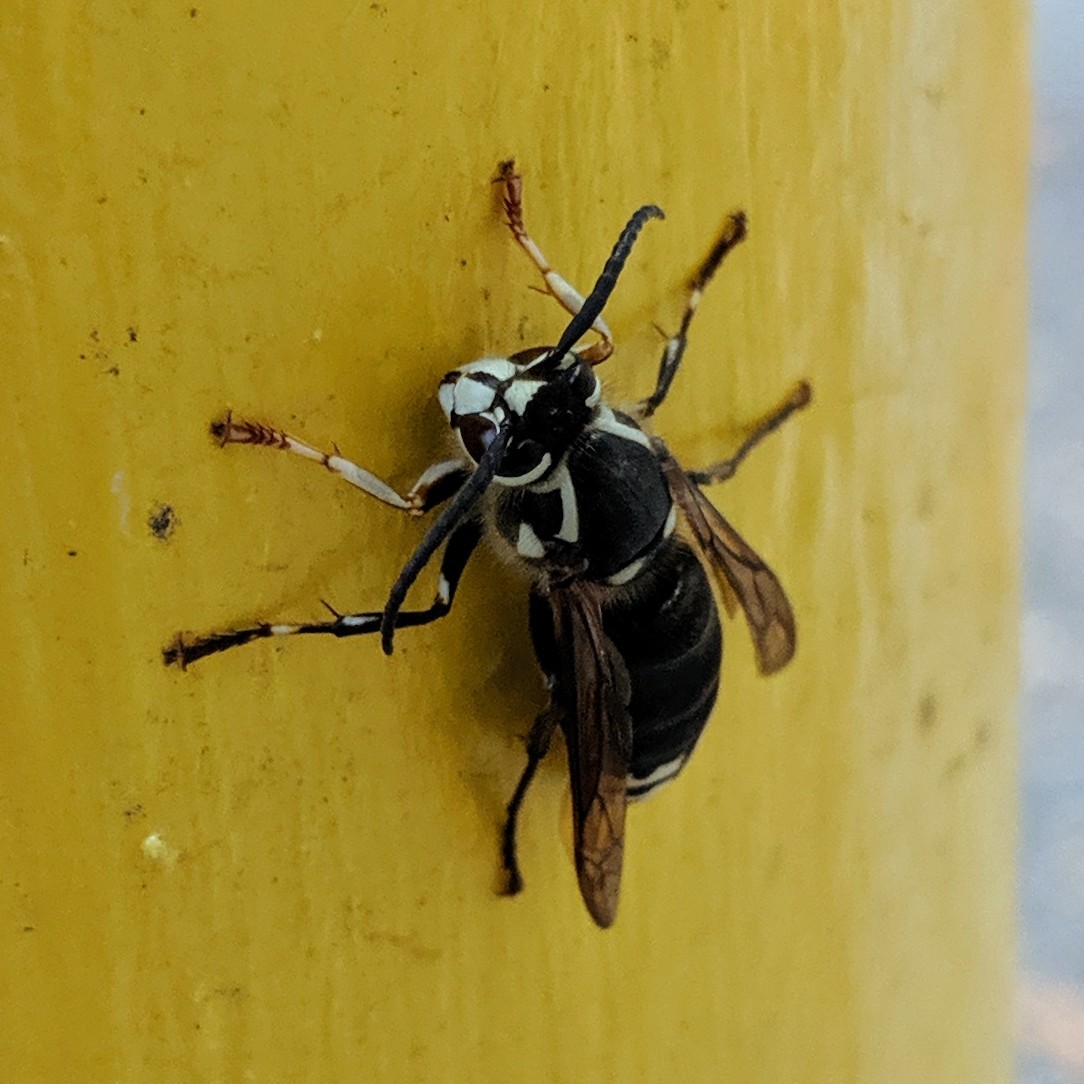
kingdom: Animalia
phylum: Arthropoda
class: Insecta
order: Hymenoptera
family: Vespidae
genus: Dolichovespula
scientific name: Dolichovespula maculata
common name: Bald-faced hornet
